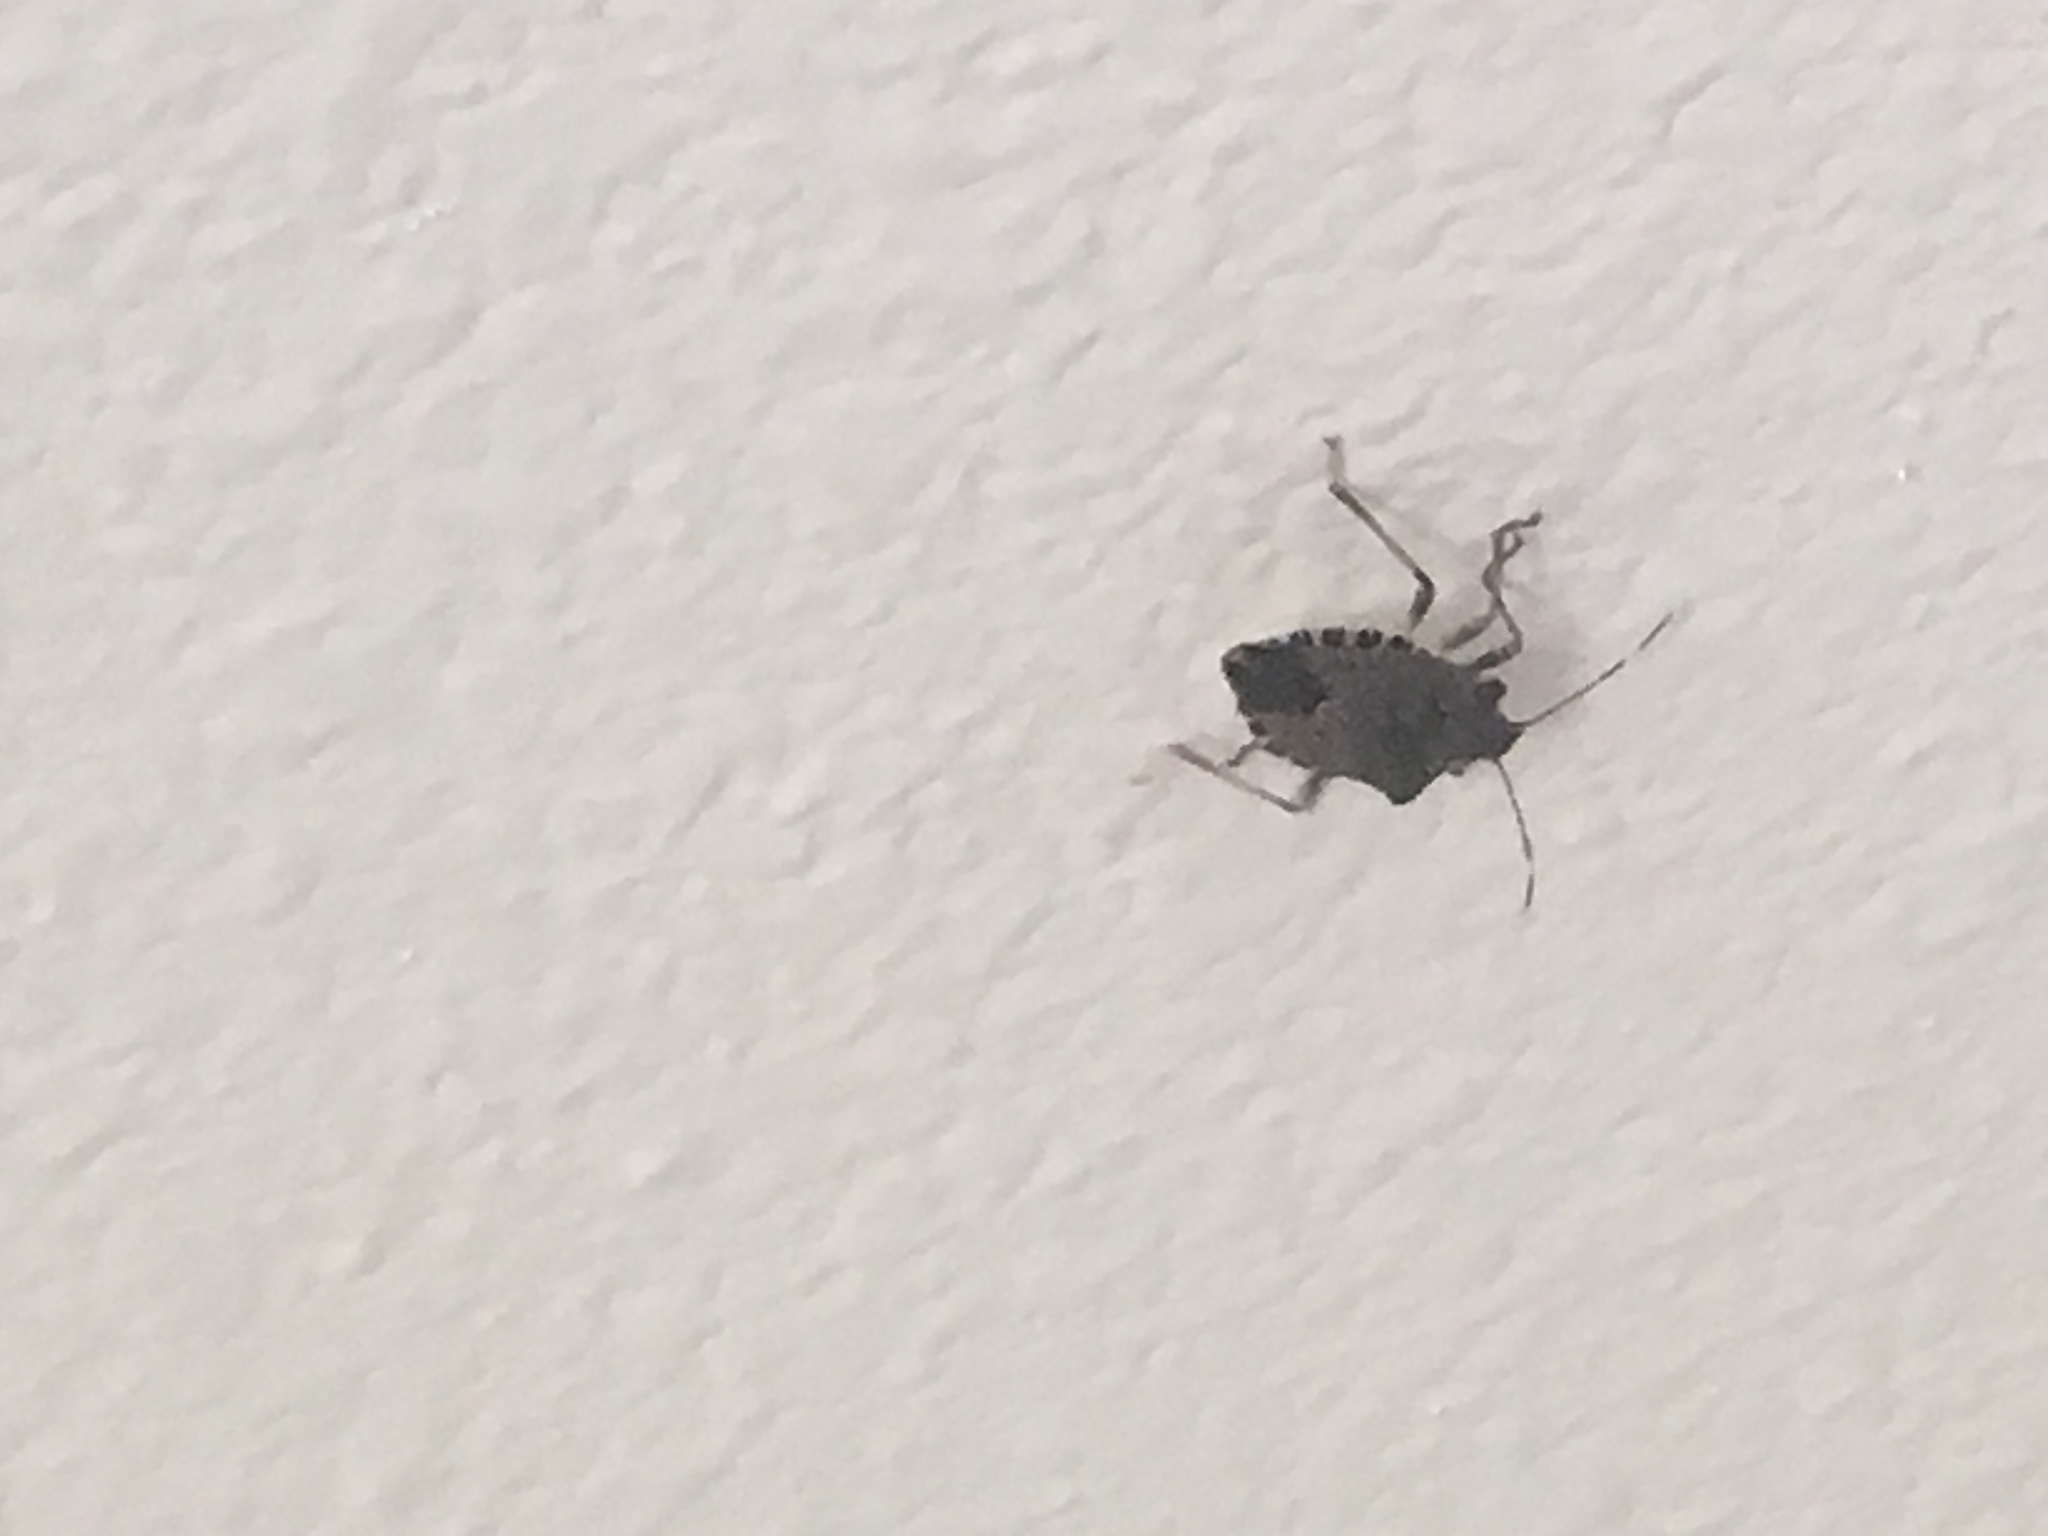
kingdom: Animalia
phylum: Arthropoda
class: Insecta
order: Hemiptera
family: Pentatomidae
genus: Halyomorpha
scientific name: Halyomorpha halys
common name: Brown marmorated stink bug
